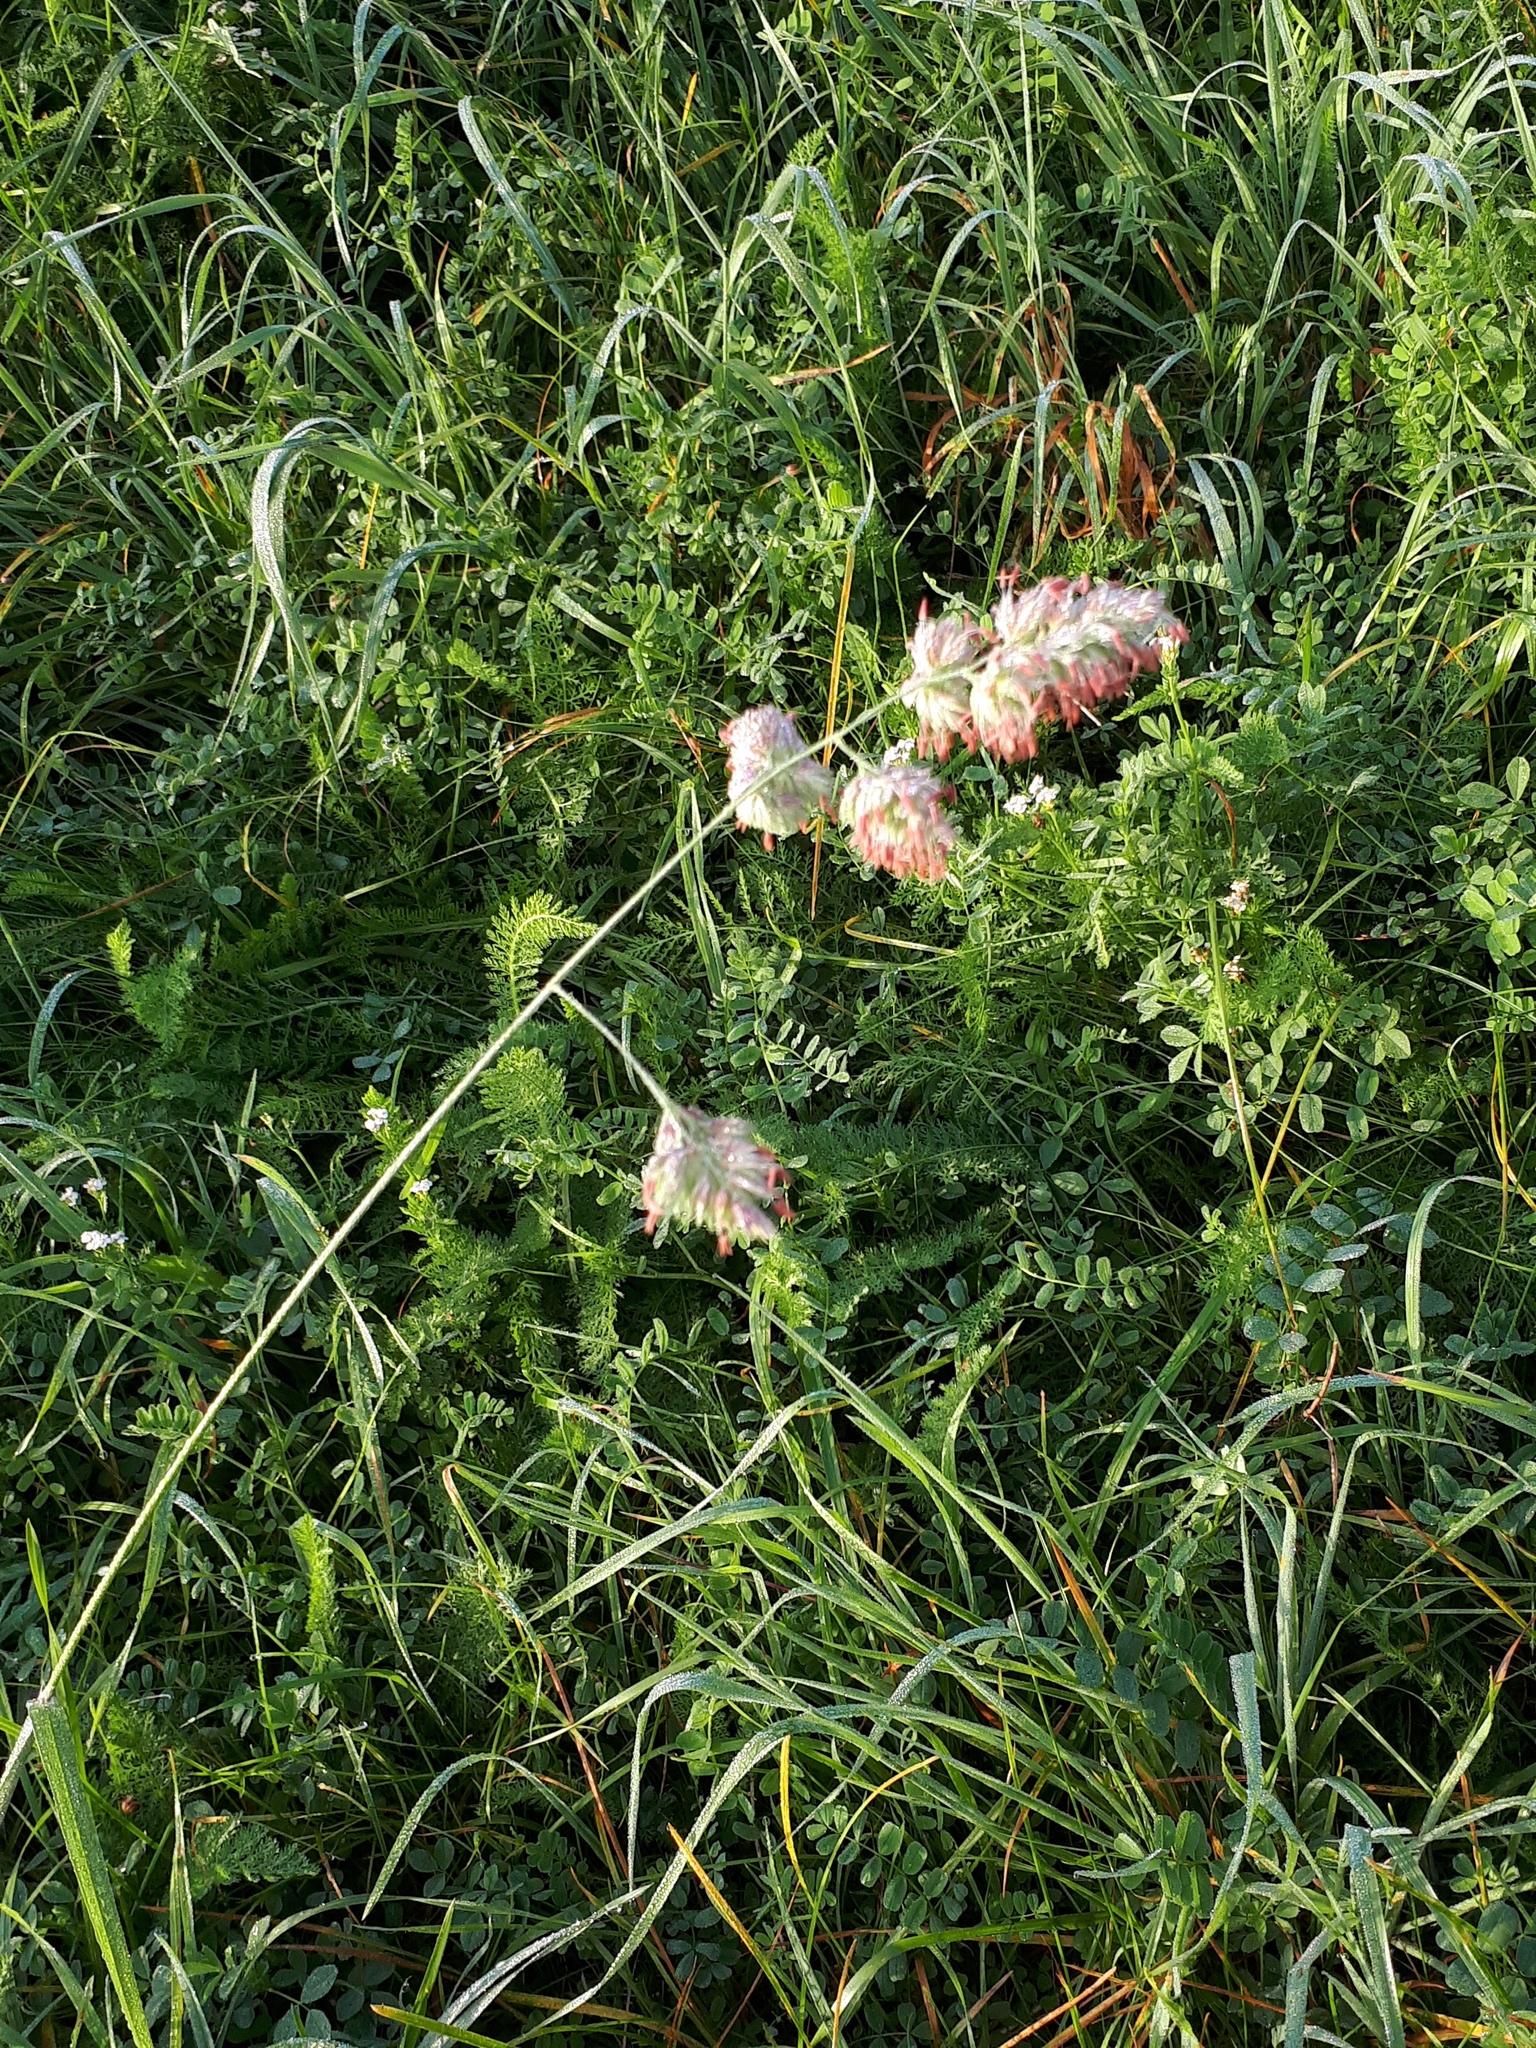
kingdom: Plantae
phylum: Tracheophyta
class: Liliopsida
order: Poales
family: Poaceae
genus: Dactylis
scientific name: Dactylis glomerata
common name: Orchardgrass
